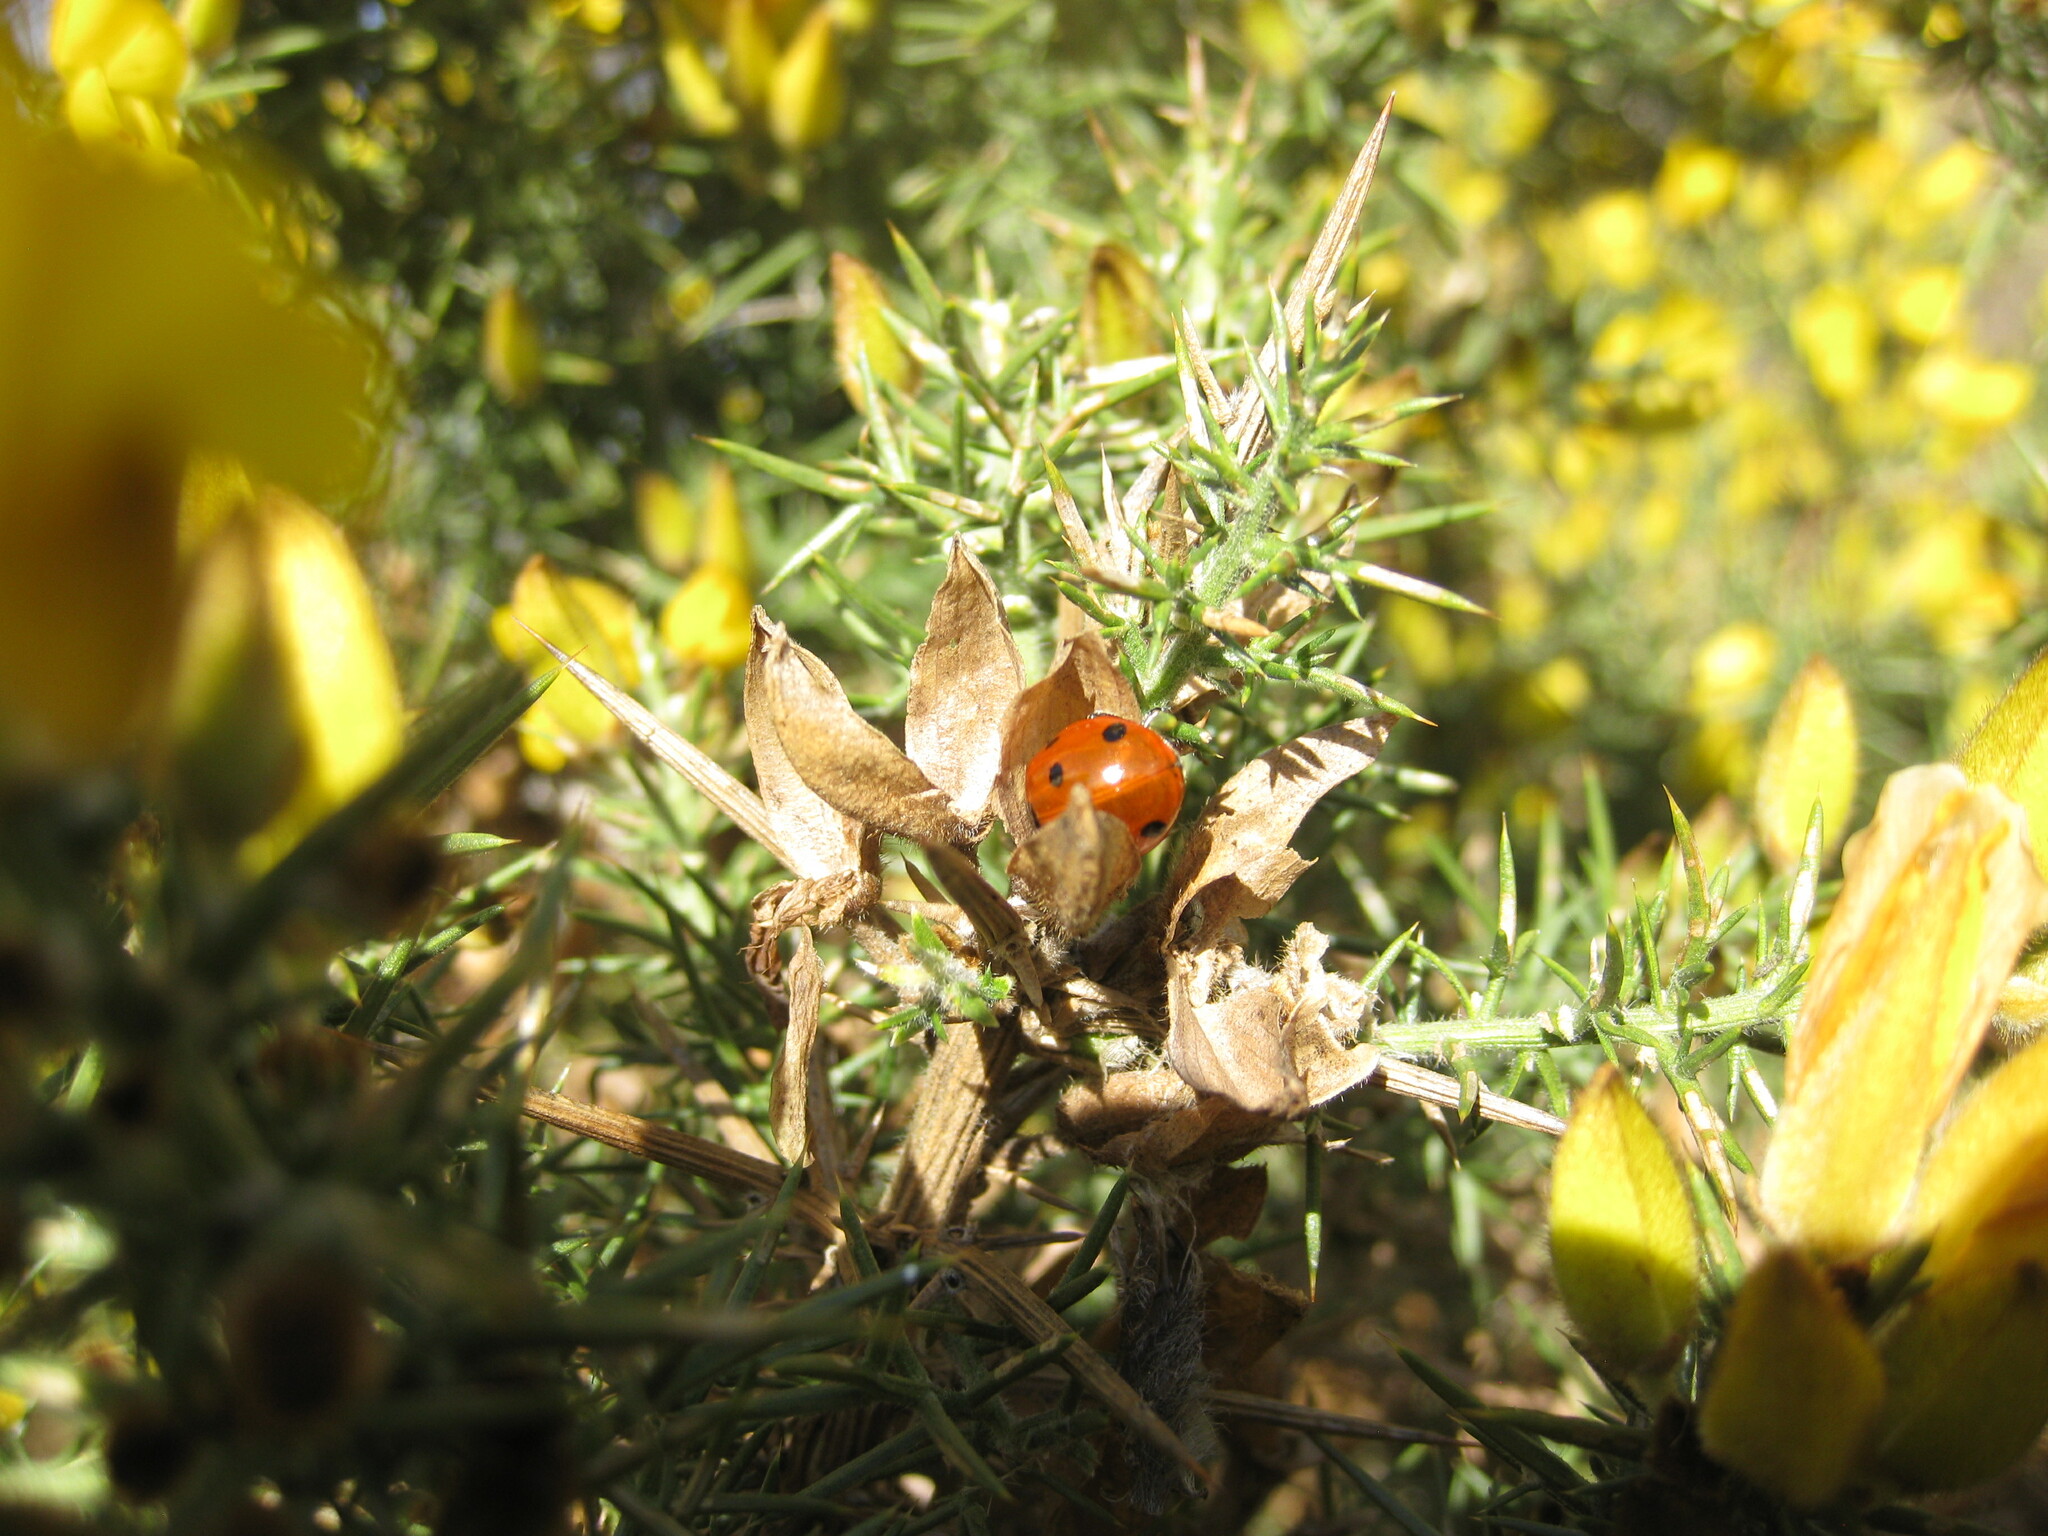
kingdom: Animalia
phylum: Arthropoda
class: Insecta
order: Coleoptera
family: Coccinellidae
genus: Coccinella
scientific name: Coccinella septempunctata
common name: Sevenspotted lady beetle
